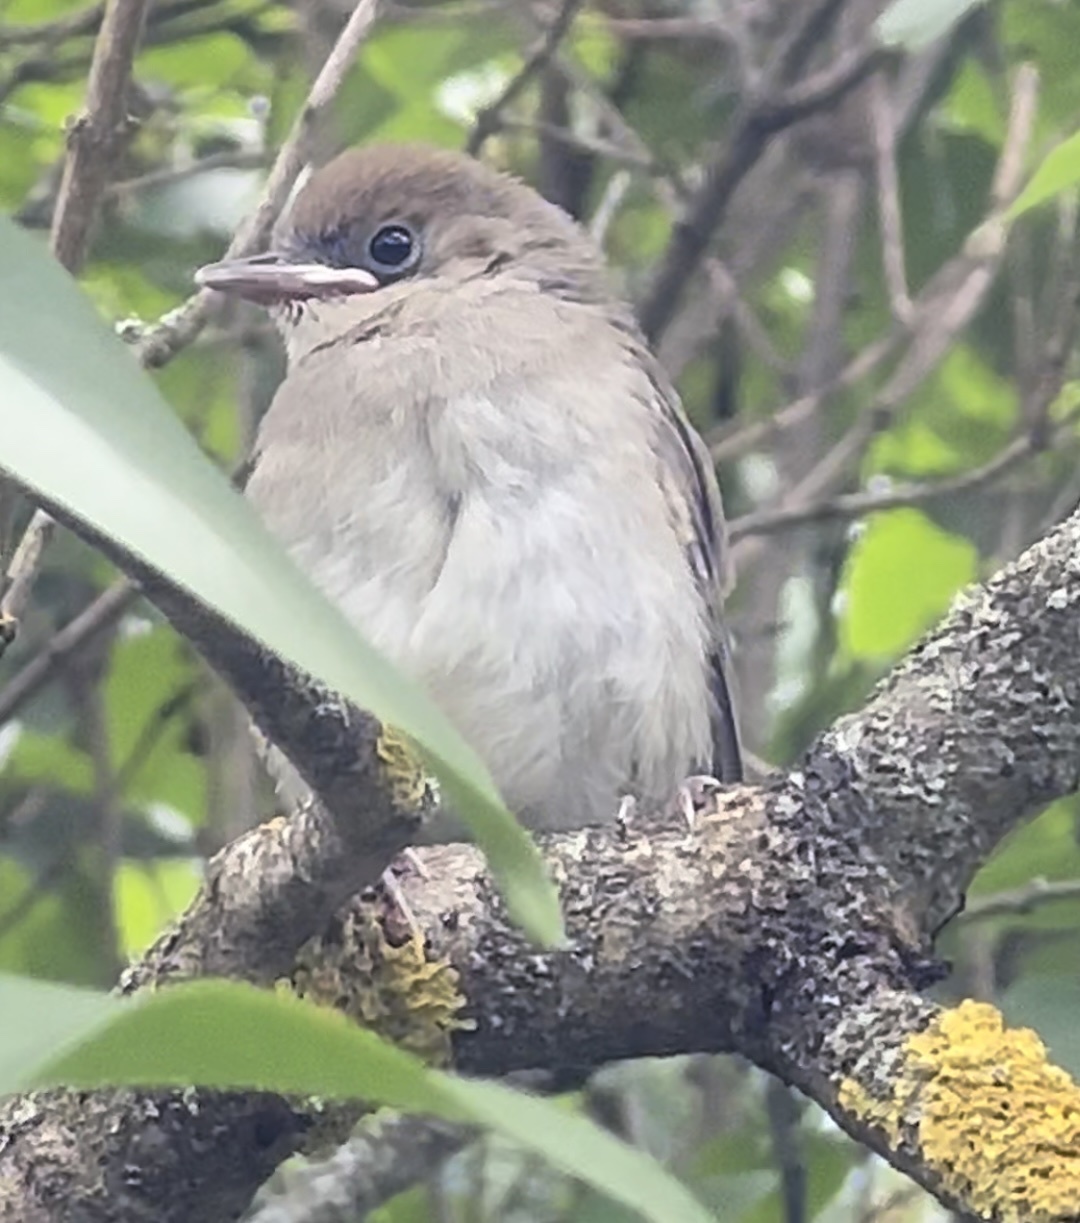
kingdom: Animalia
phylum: Chordata
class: Aves
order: Passeriformes
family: Sylviidae
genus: Sylvia
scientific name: Sylvia atricapilla
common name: Eurasian blackcap
